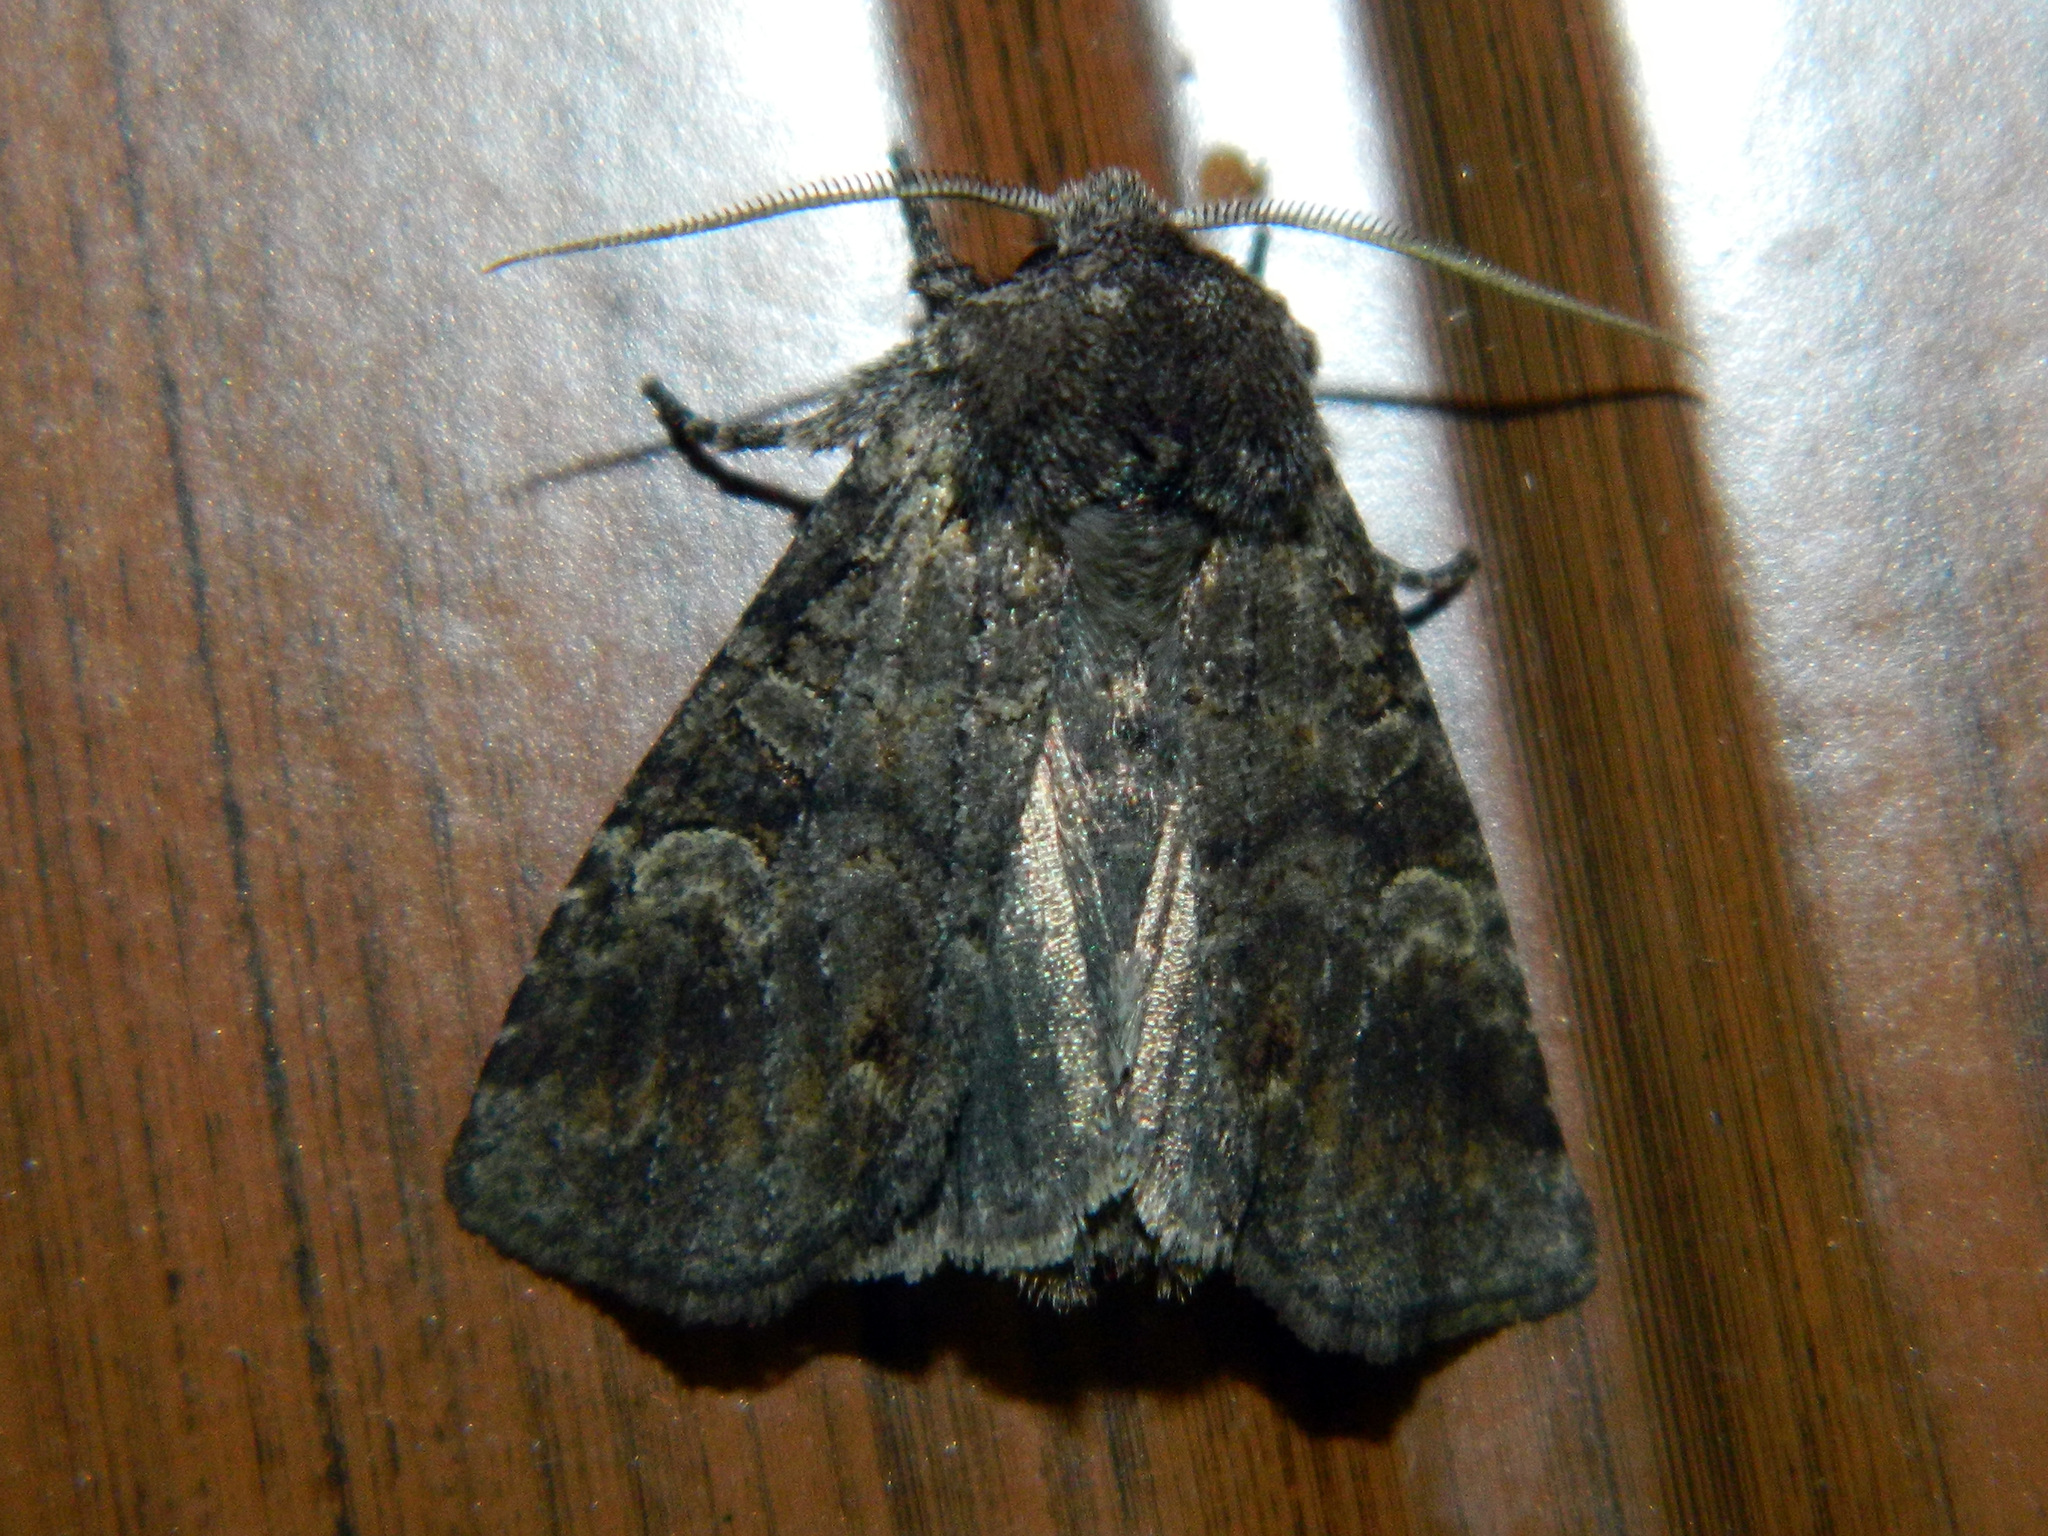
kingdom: Animalia
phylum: Arthropoda
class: Insecta
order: Lepidoptera
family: Noctuidae
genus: Brachylomia
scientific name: Brachylomia algens
